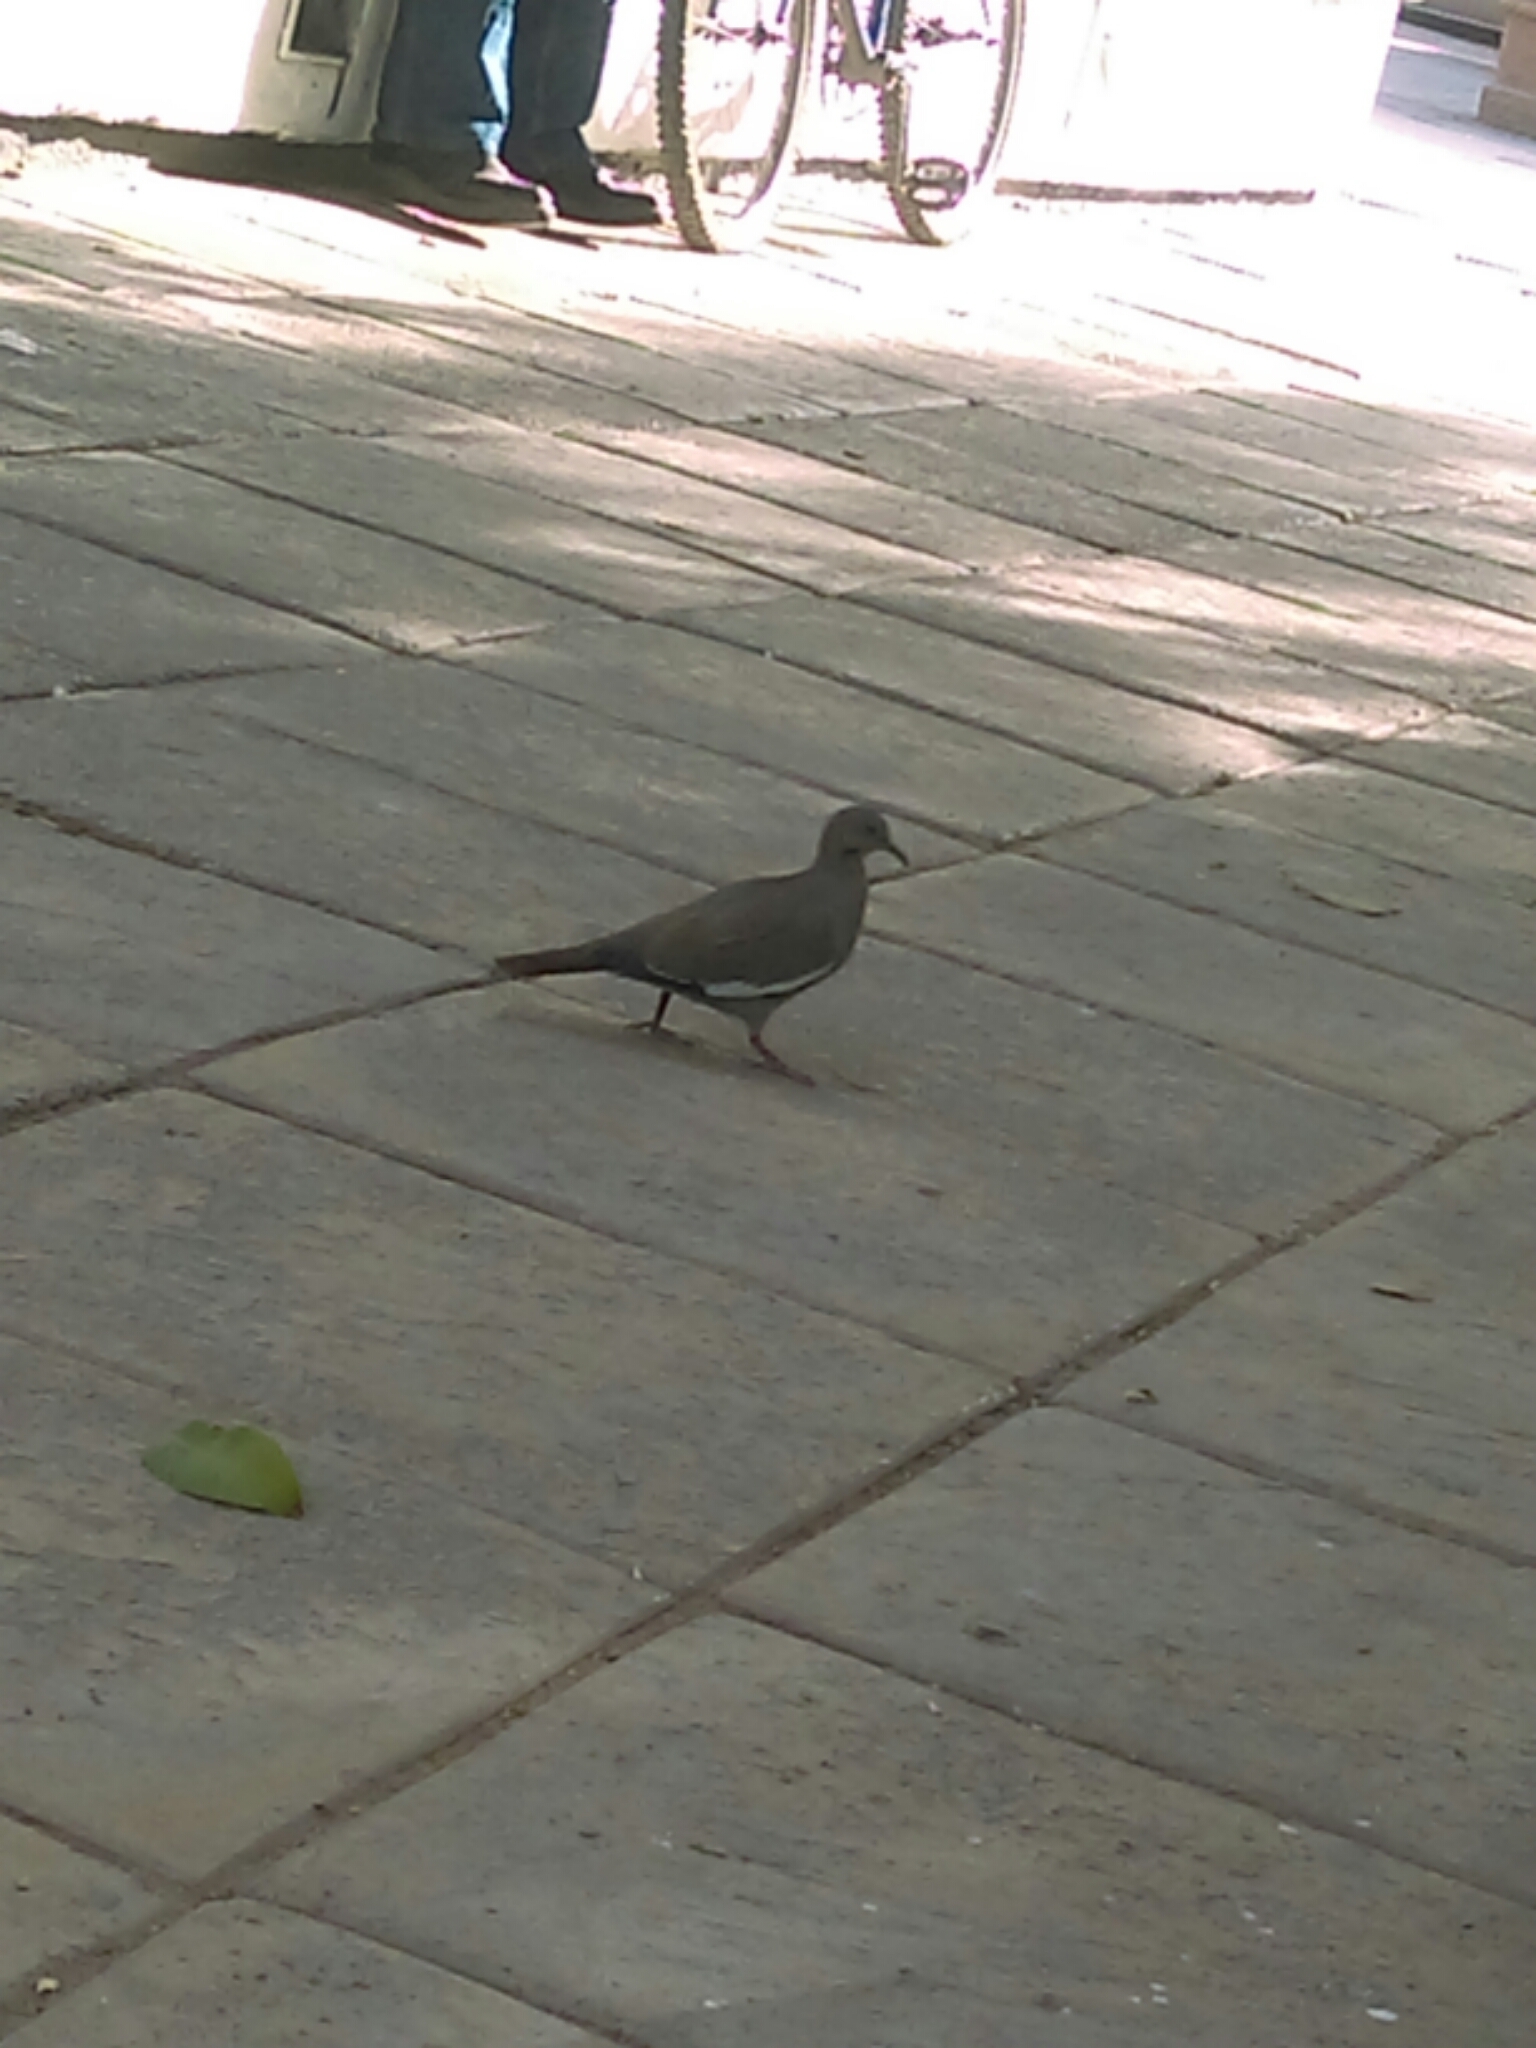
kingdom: Animalia
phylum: Chordata
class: Aves
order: Columbiformes
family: Columbidae
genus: Zenaida
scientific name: Zenaida asiatica
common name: White-winged dove
